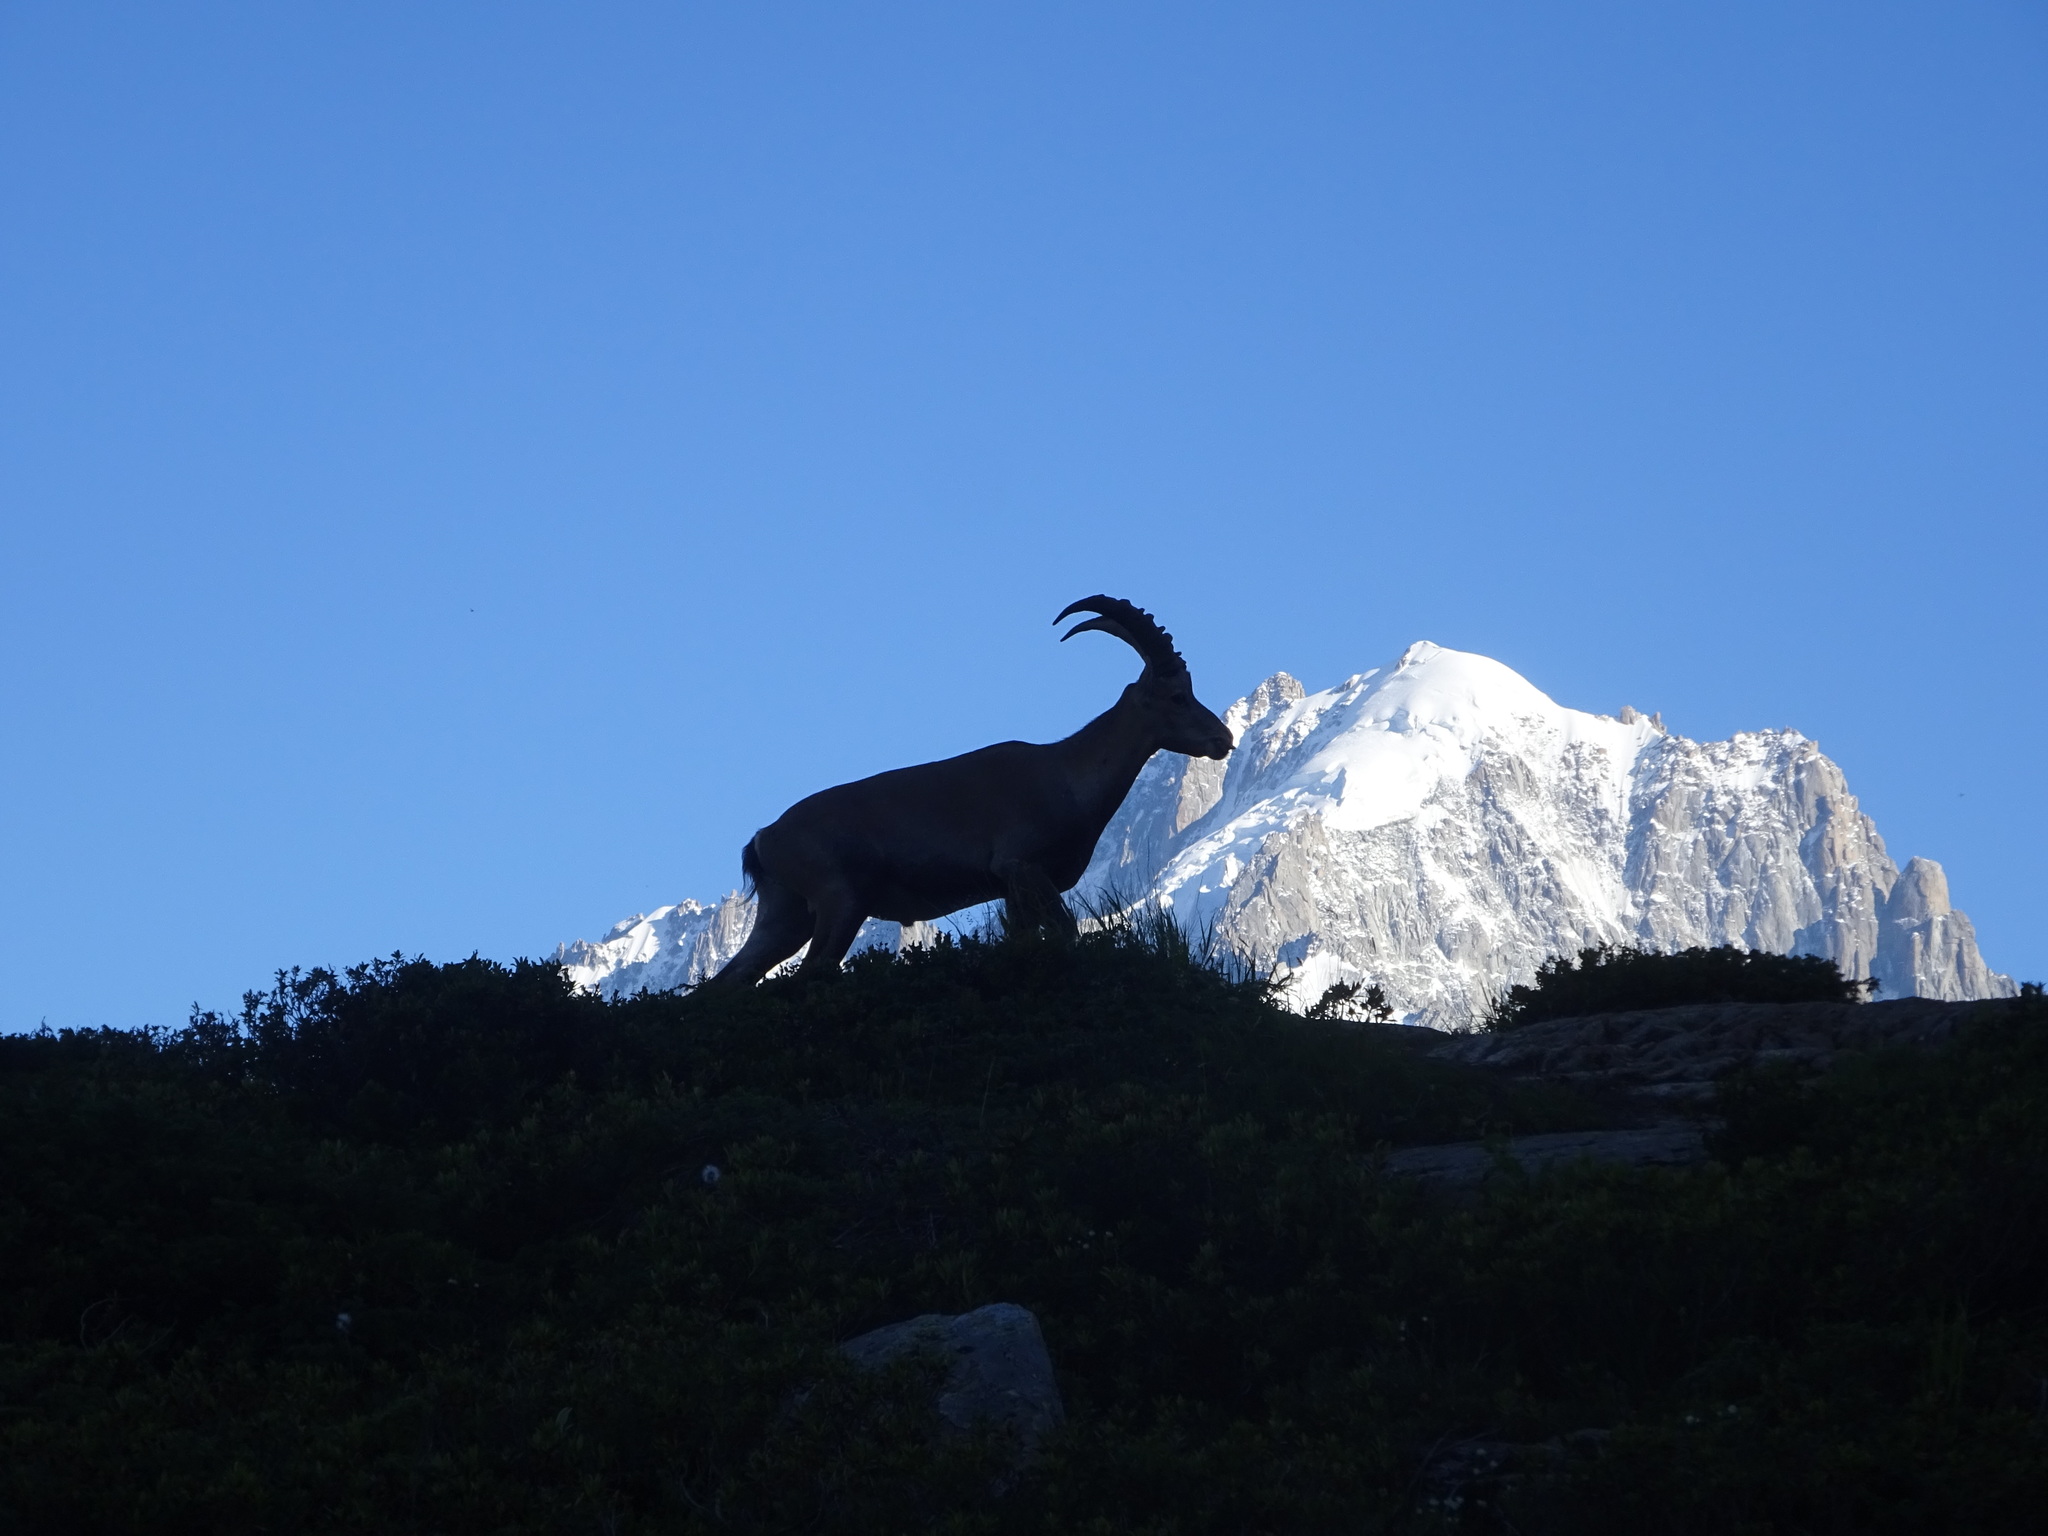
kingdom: Animalia
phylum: Chordata
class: Mammalia
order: Artiodactyla
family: Bovidae
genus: Capra
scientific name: Capra ibex
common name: Alpine ibex
